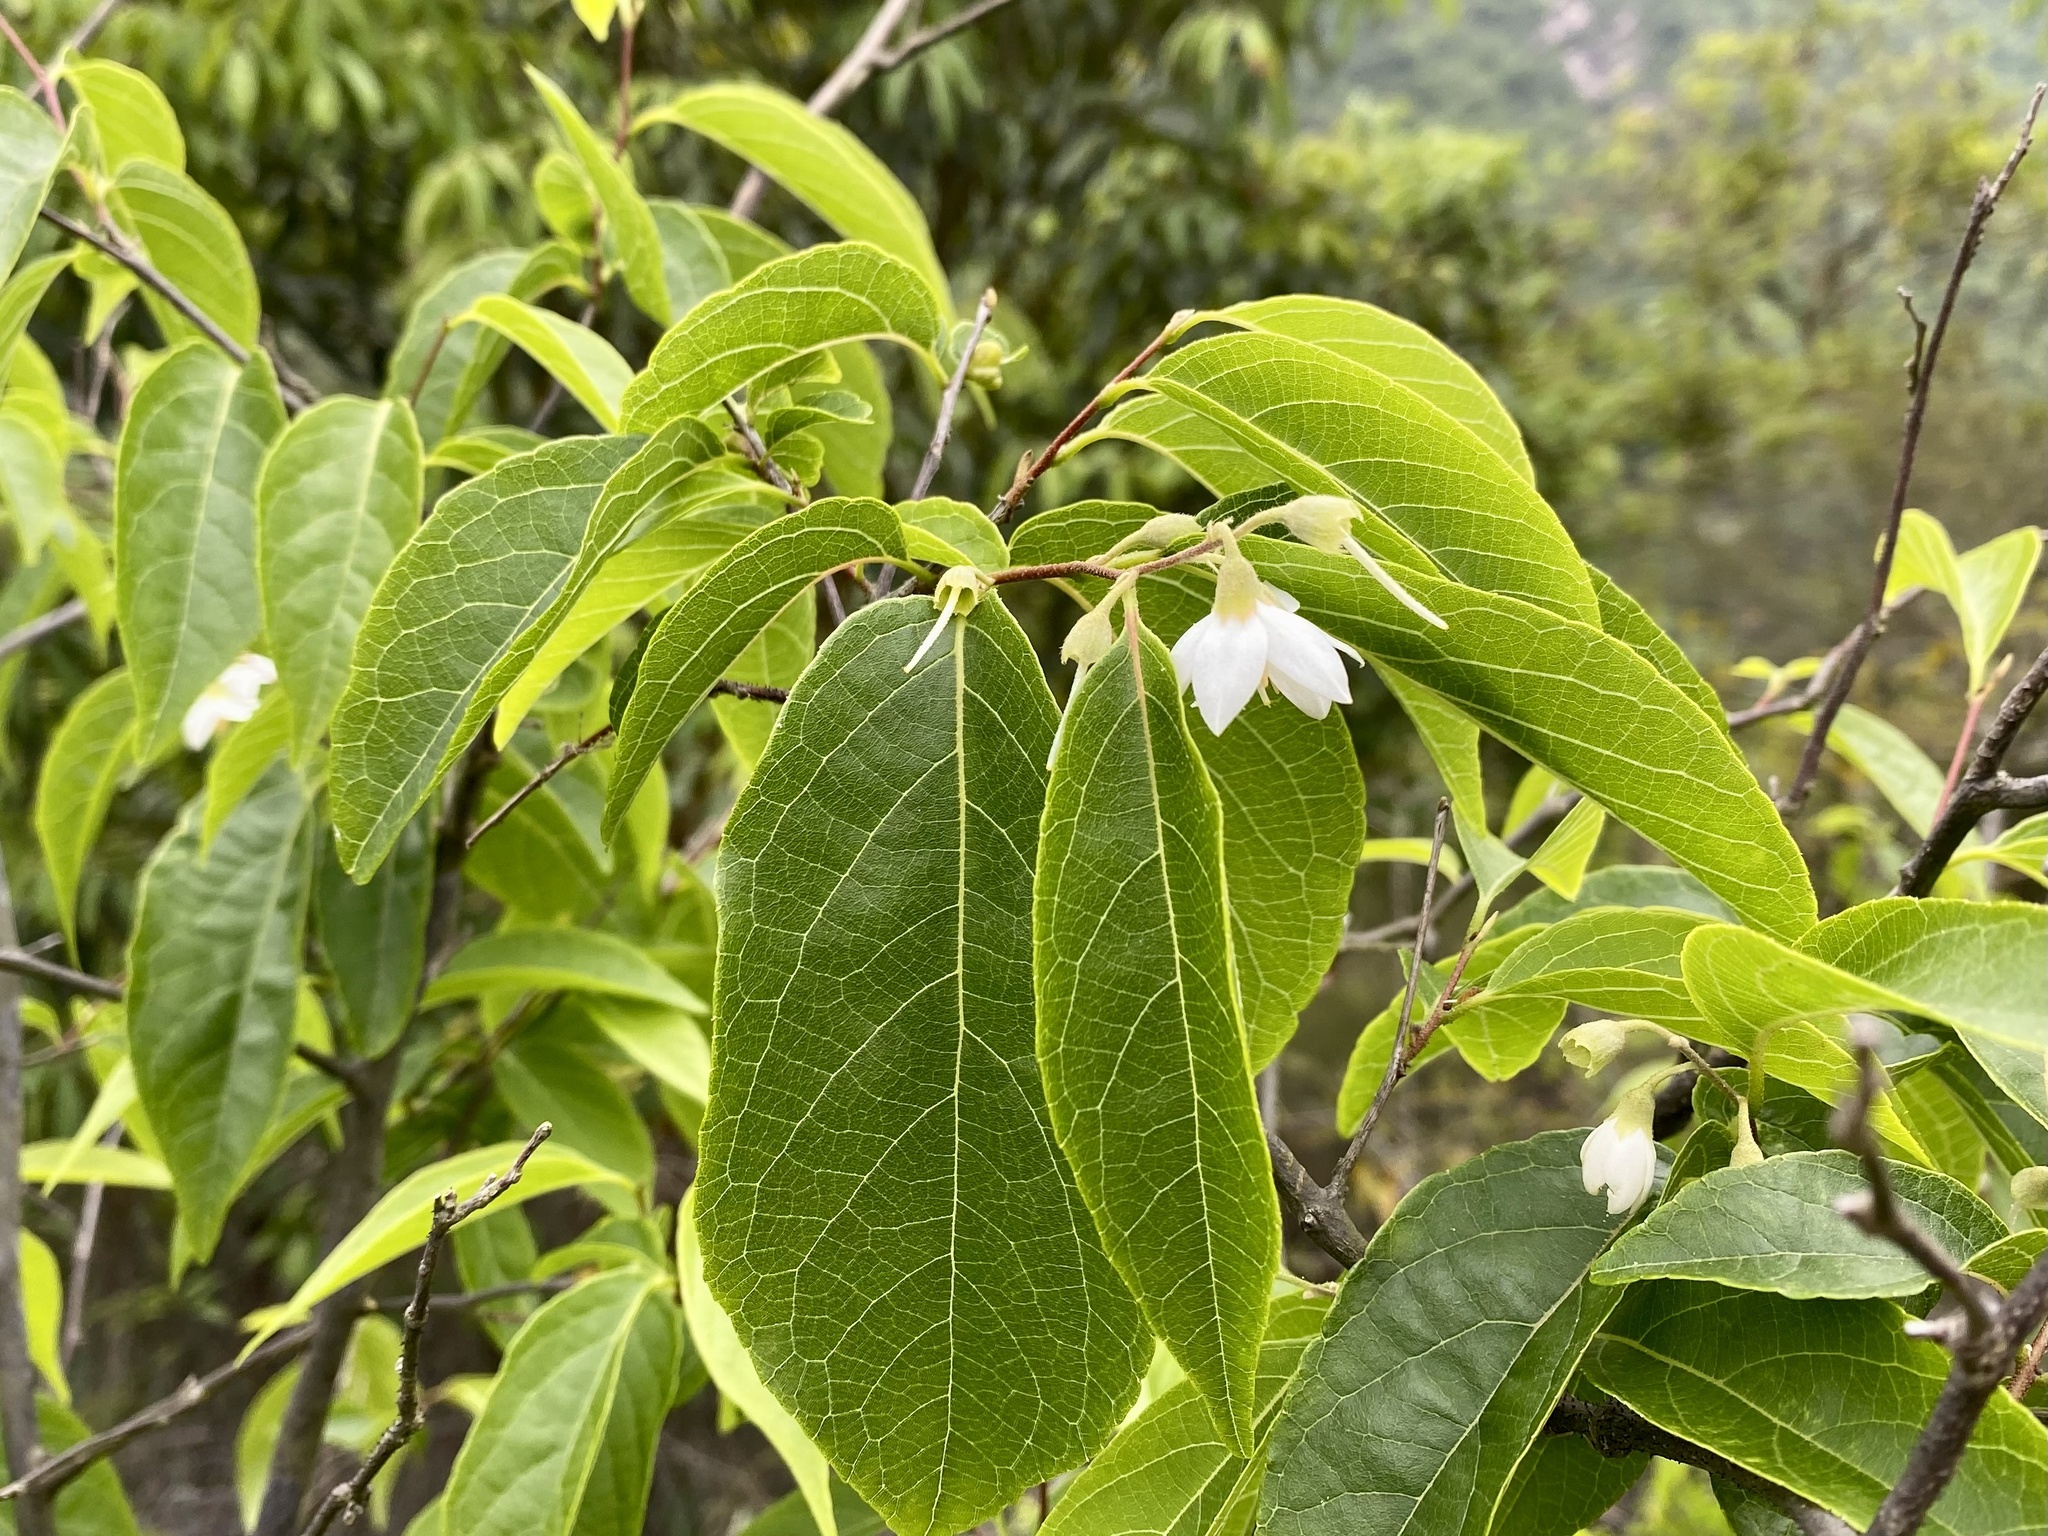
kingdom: Plantae
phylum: Tracheophyta
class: Magnoliopsida
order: Ericales
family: Styracaceae
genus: Styrax
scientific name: Styrax odoratissimus
